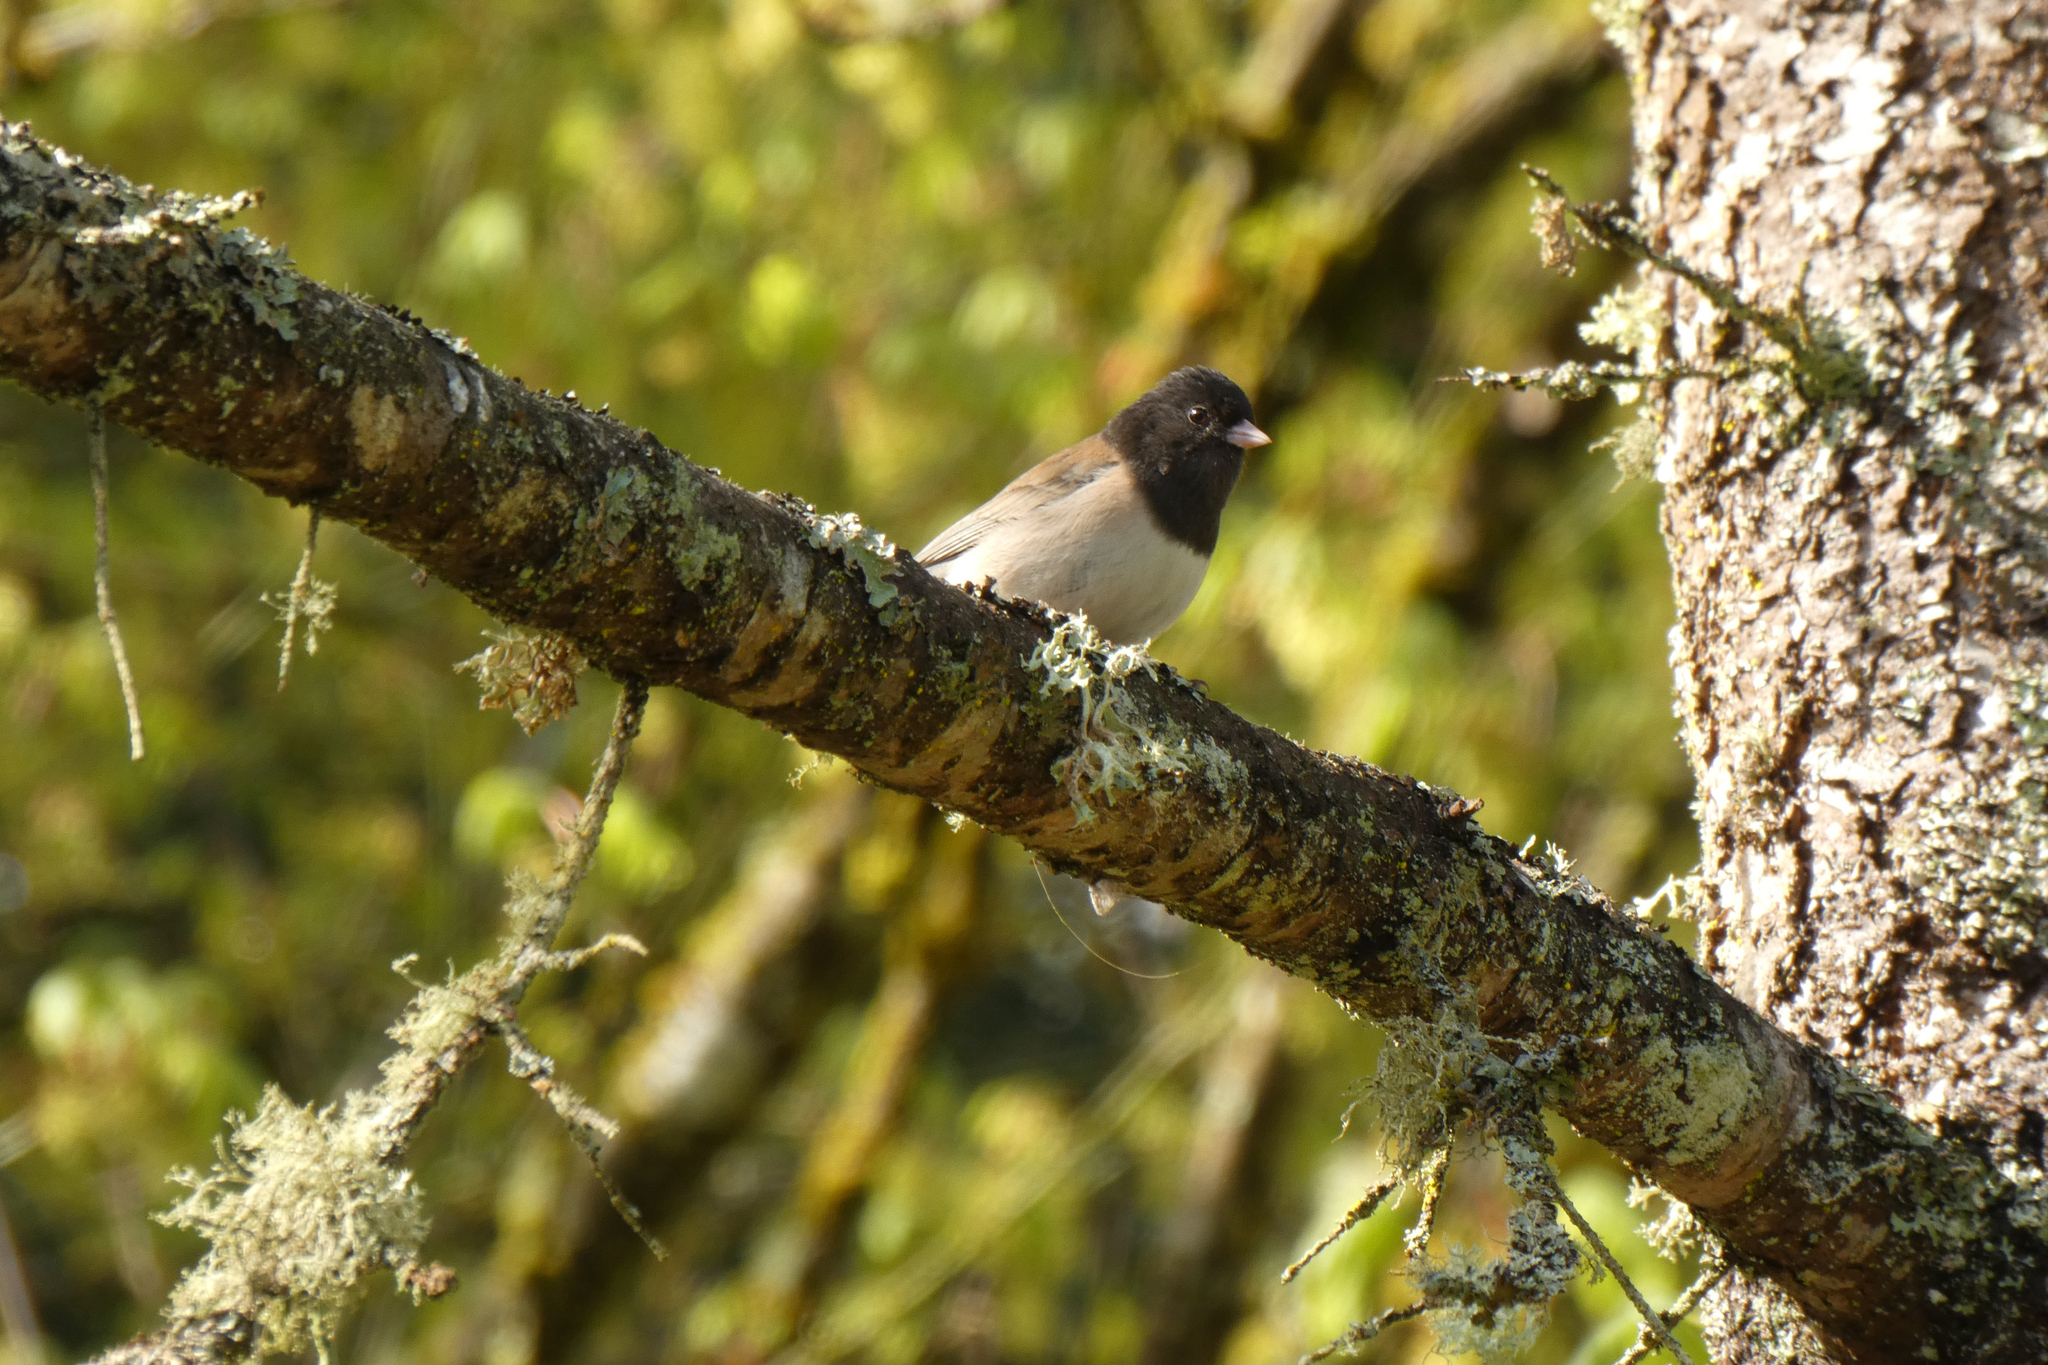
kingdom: Animalia
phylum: Chordata
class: Aves
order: Passeriformes
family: Passerellidae
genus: Junco
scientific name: Junco hyemalis
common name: Dark-eyed junco
